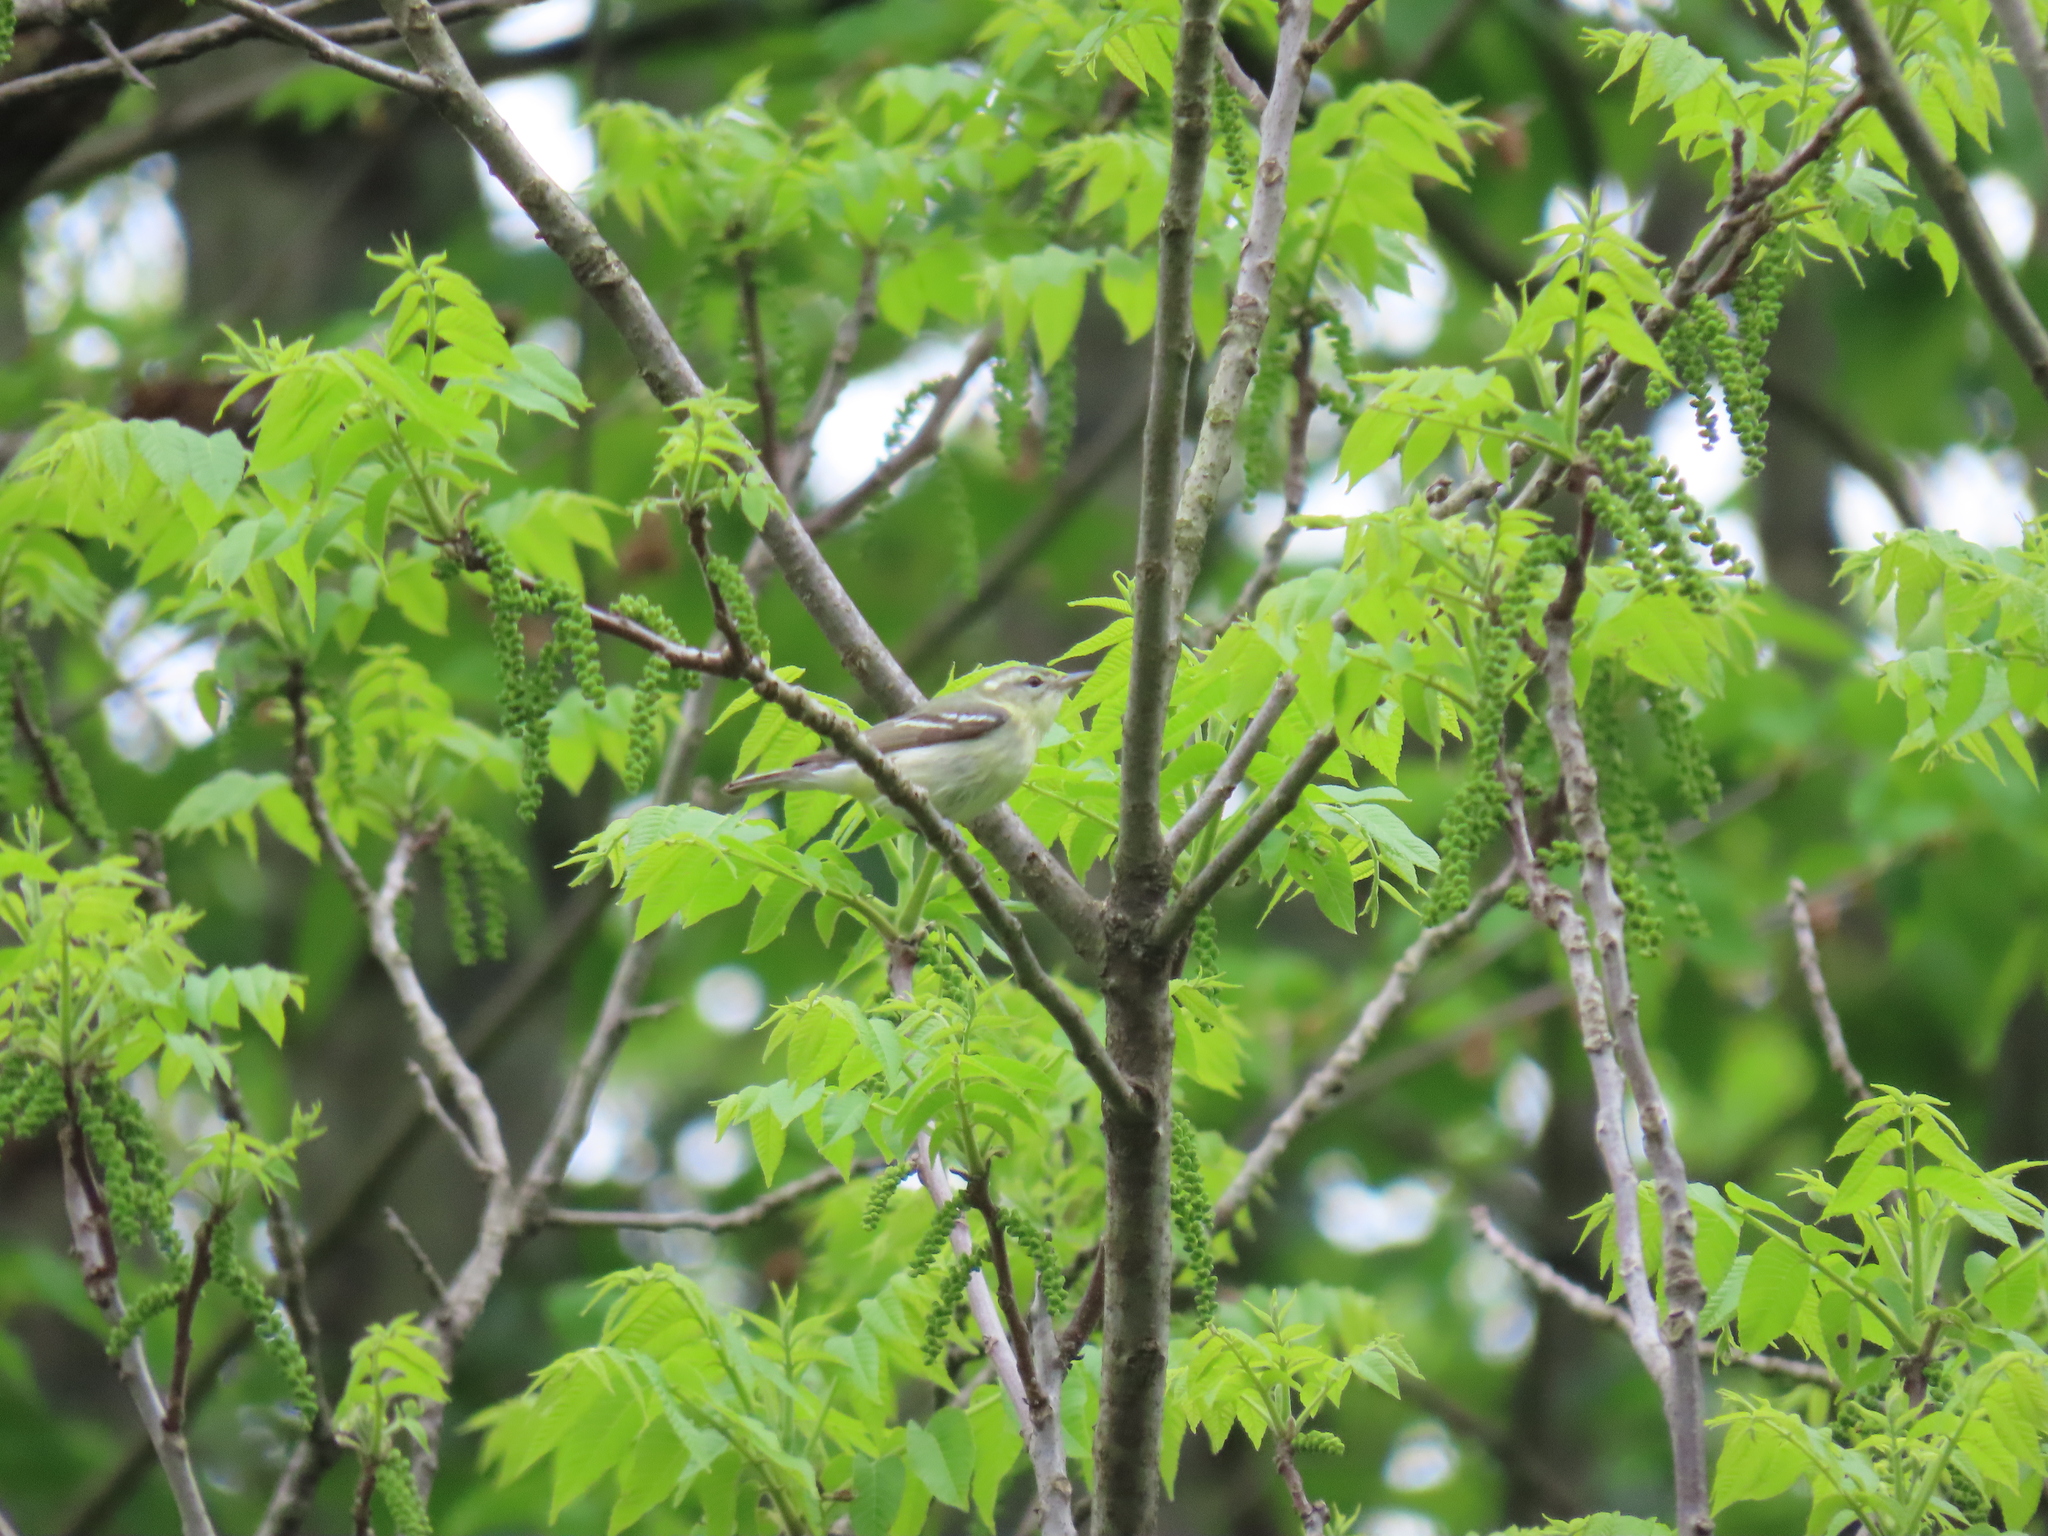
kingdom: Animalia
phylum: Chordata
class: Aves
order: Passeriformes
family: Parulidae
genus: Setophaga
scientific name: Setophaga cerulea
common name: Cerulean warbler
